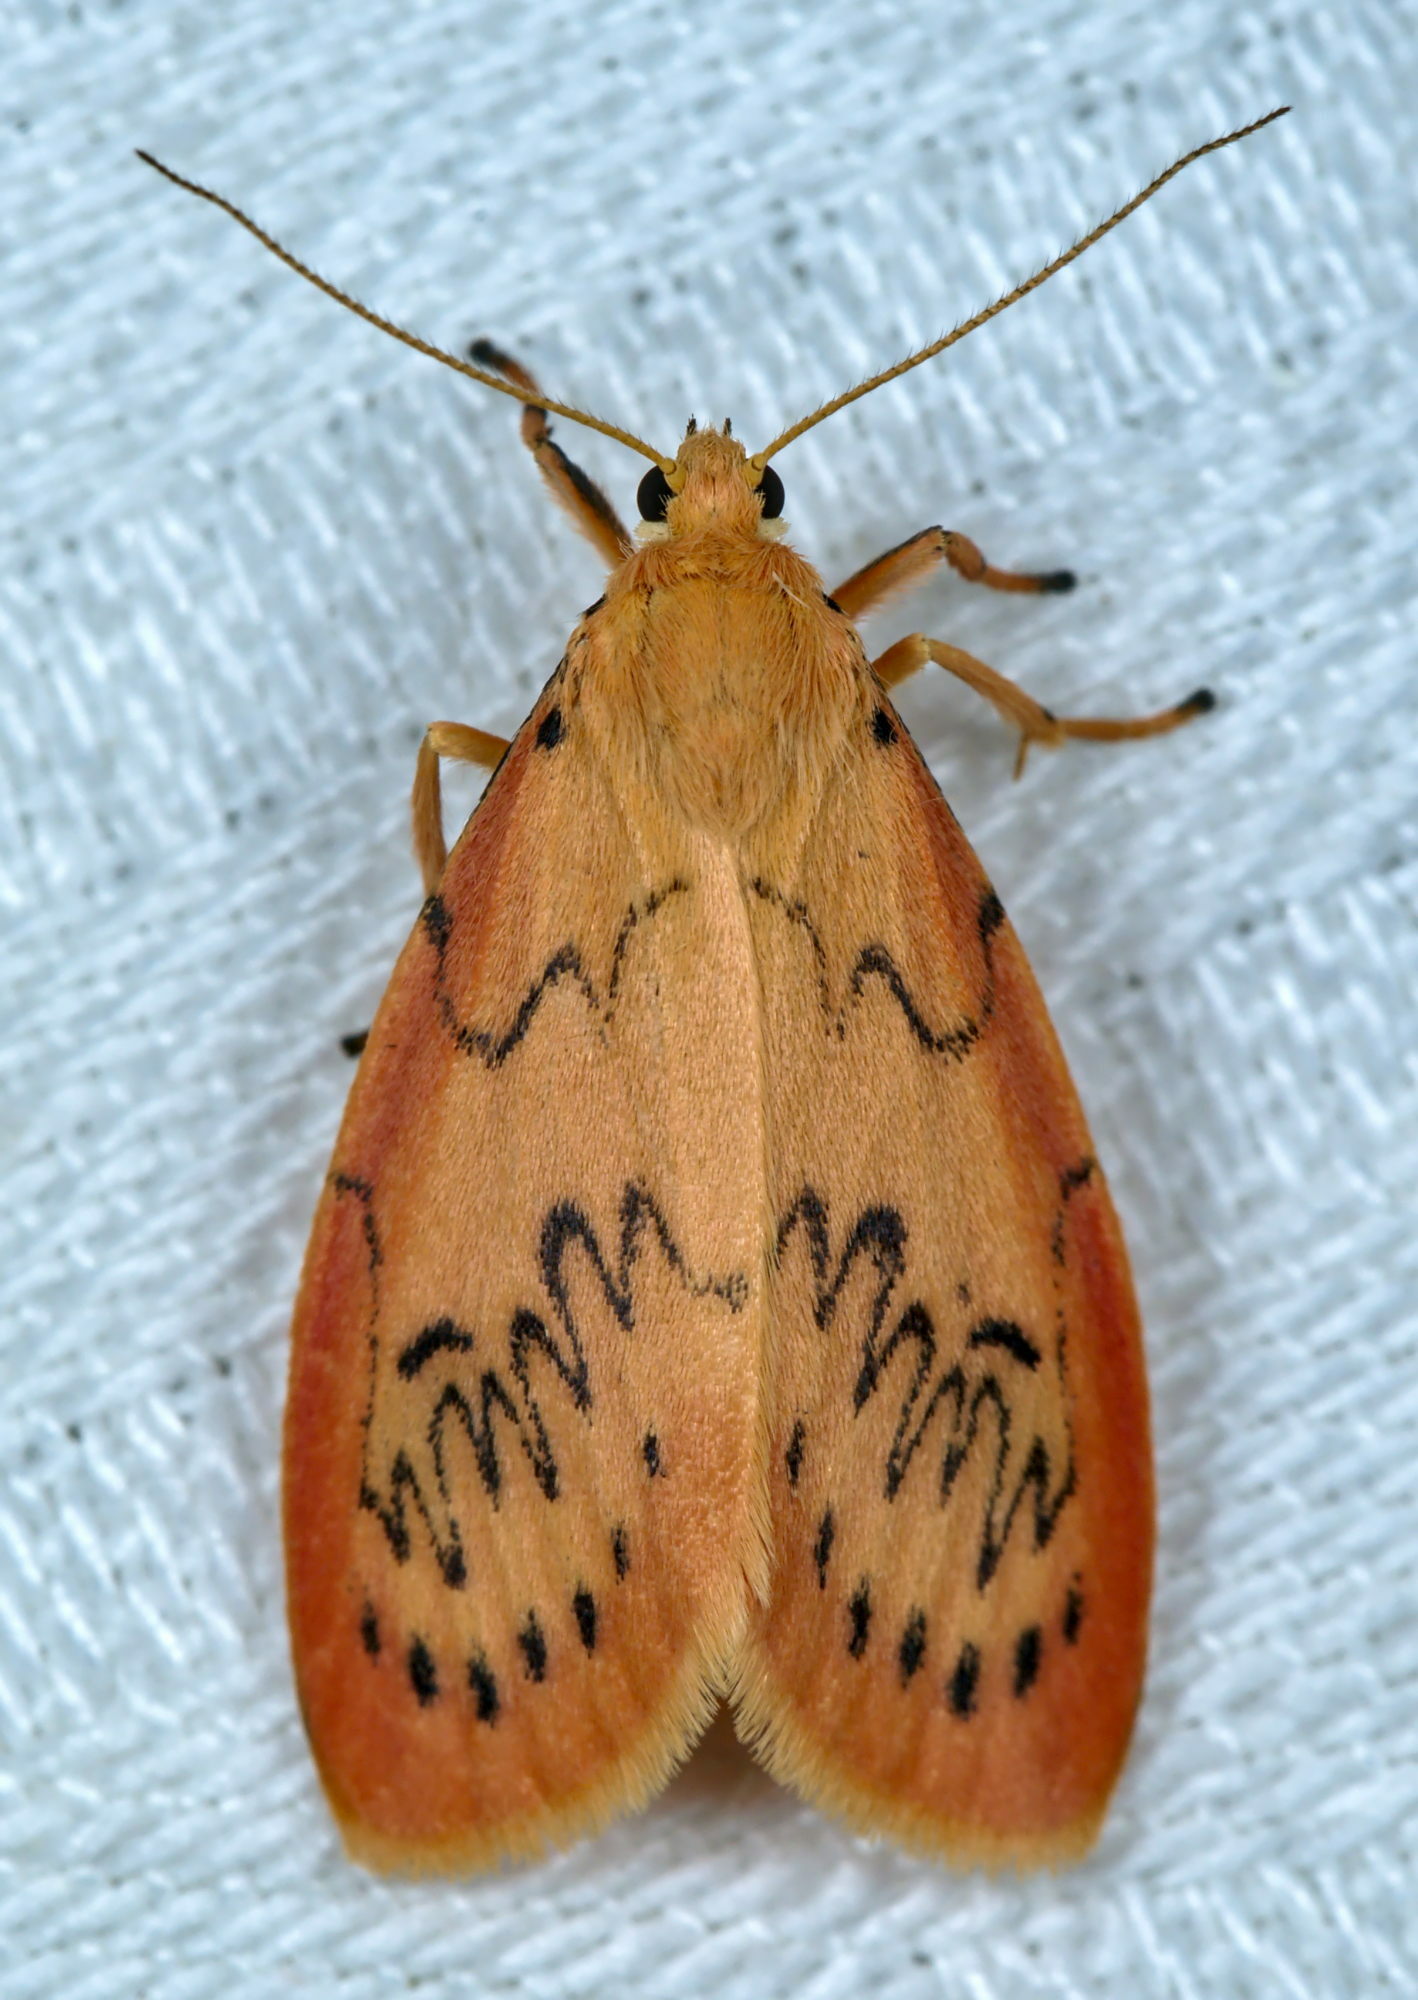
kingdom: Animalia
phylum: Arthropoda
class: Insecta
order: Lepidoptera
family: Erebidae
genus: Miltochrista
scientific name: Miltochrista miniata
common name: Rosy footman
